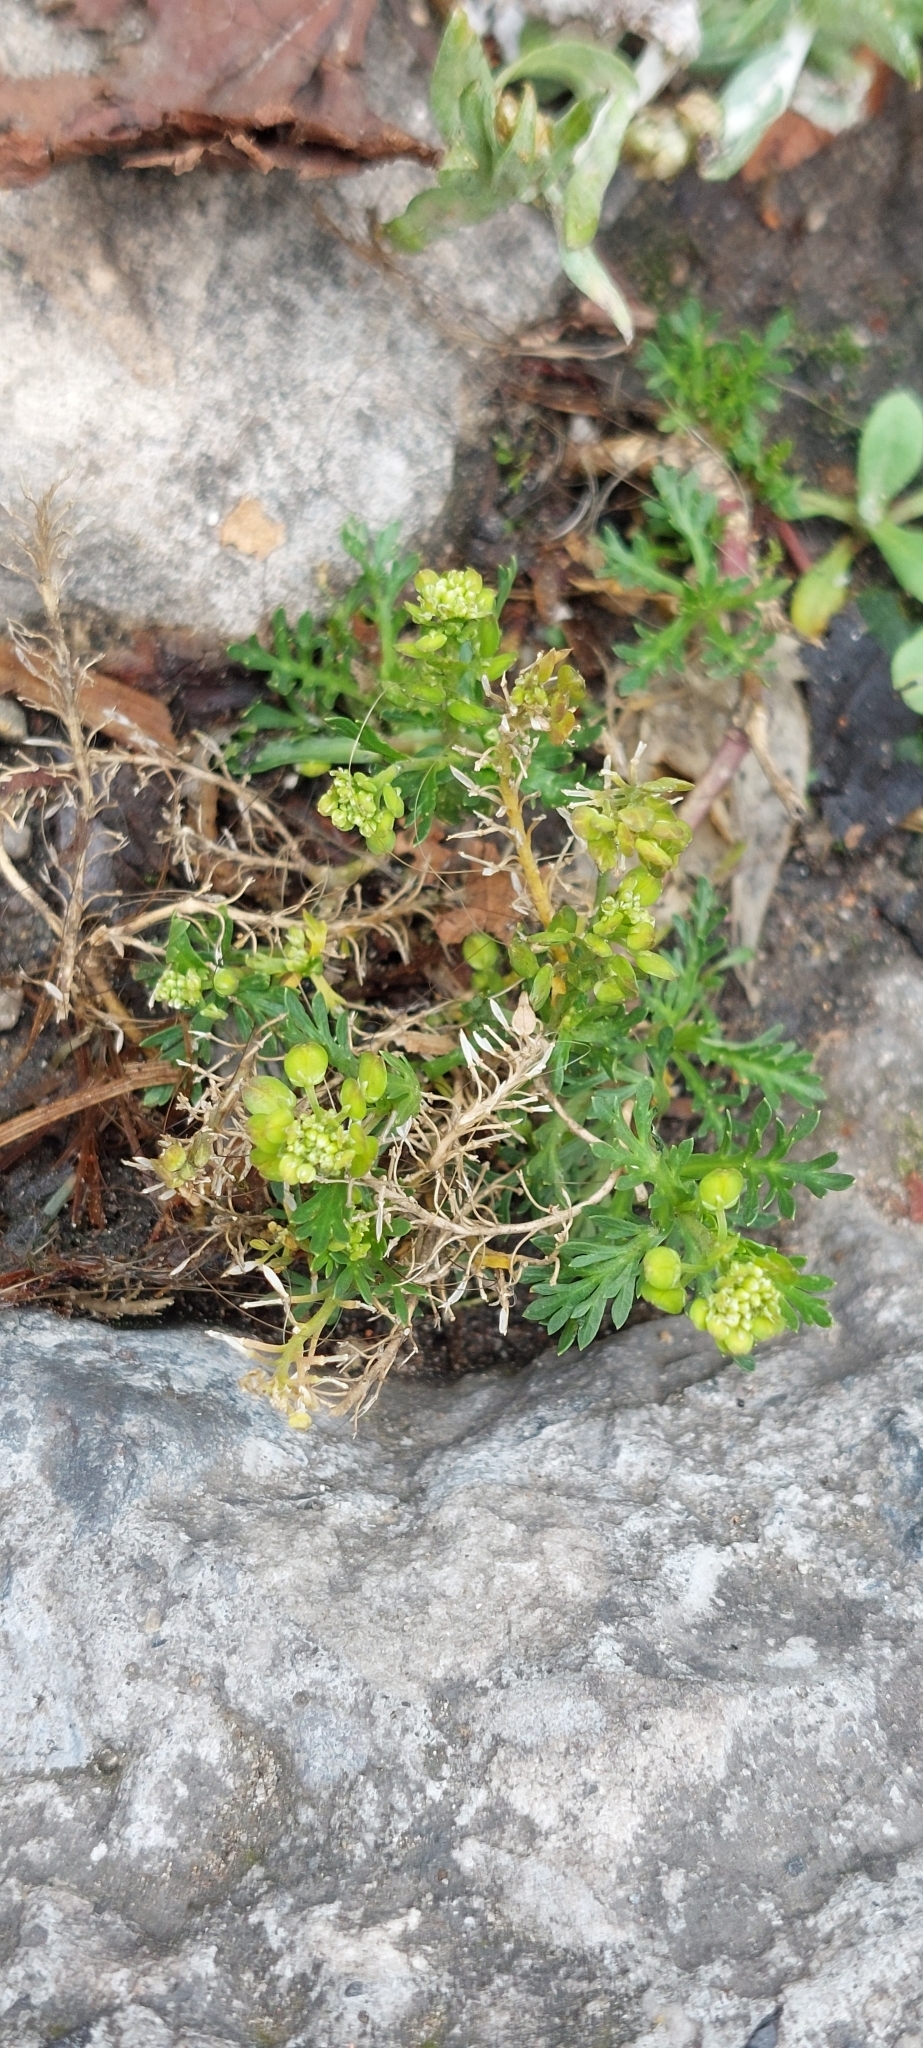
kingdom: Plantae
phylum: Tracheophyta
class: Magnoliopsida
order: Brassicales
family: Brassicaceae
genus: Lepidium
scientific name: Lepidium bipinnatifidum
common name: Wayside pepperwort
